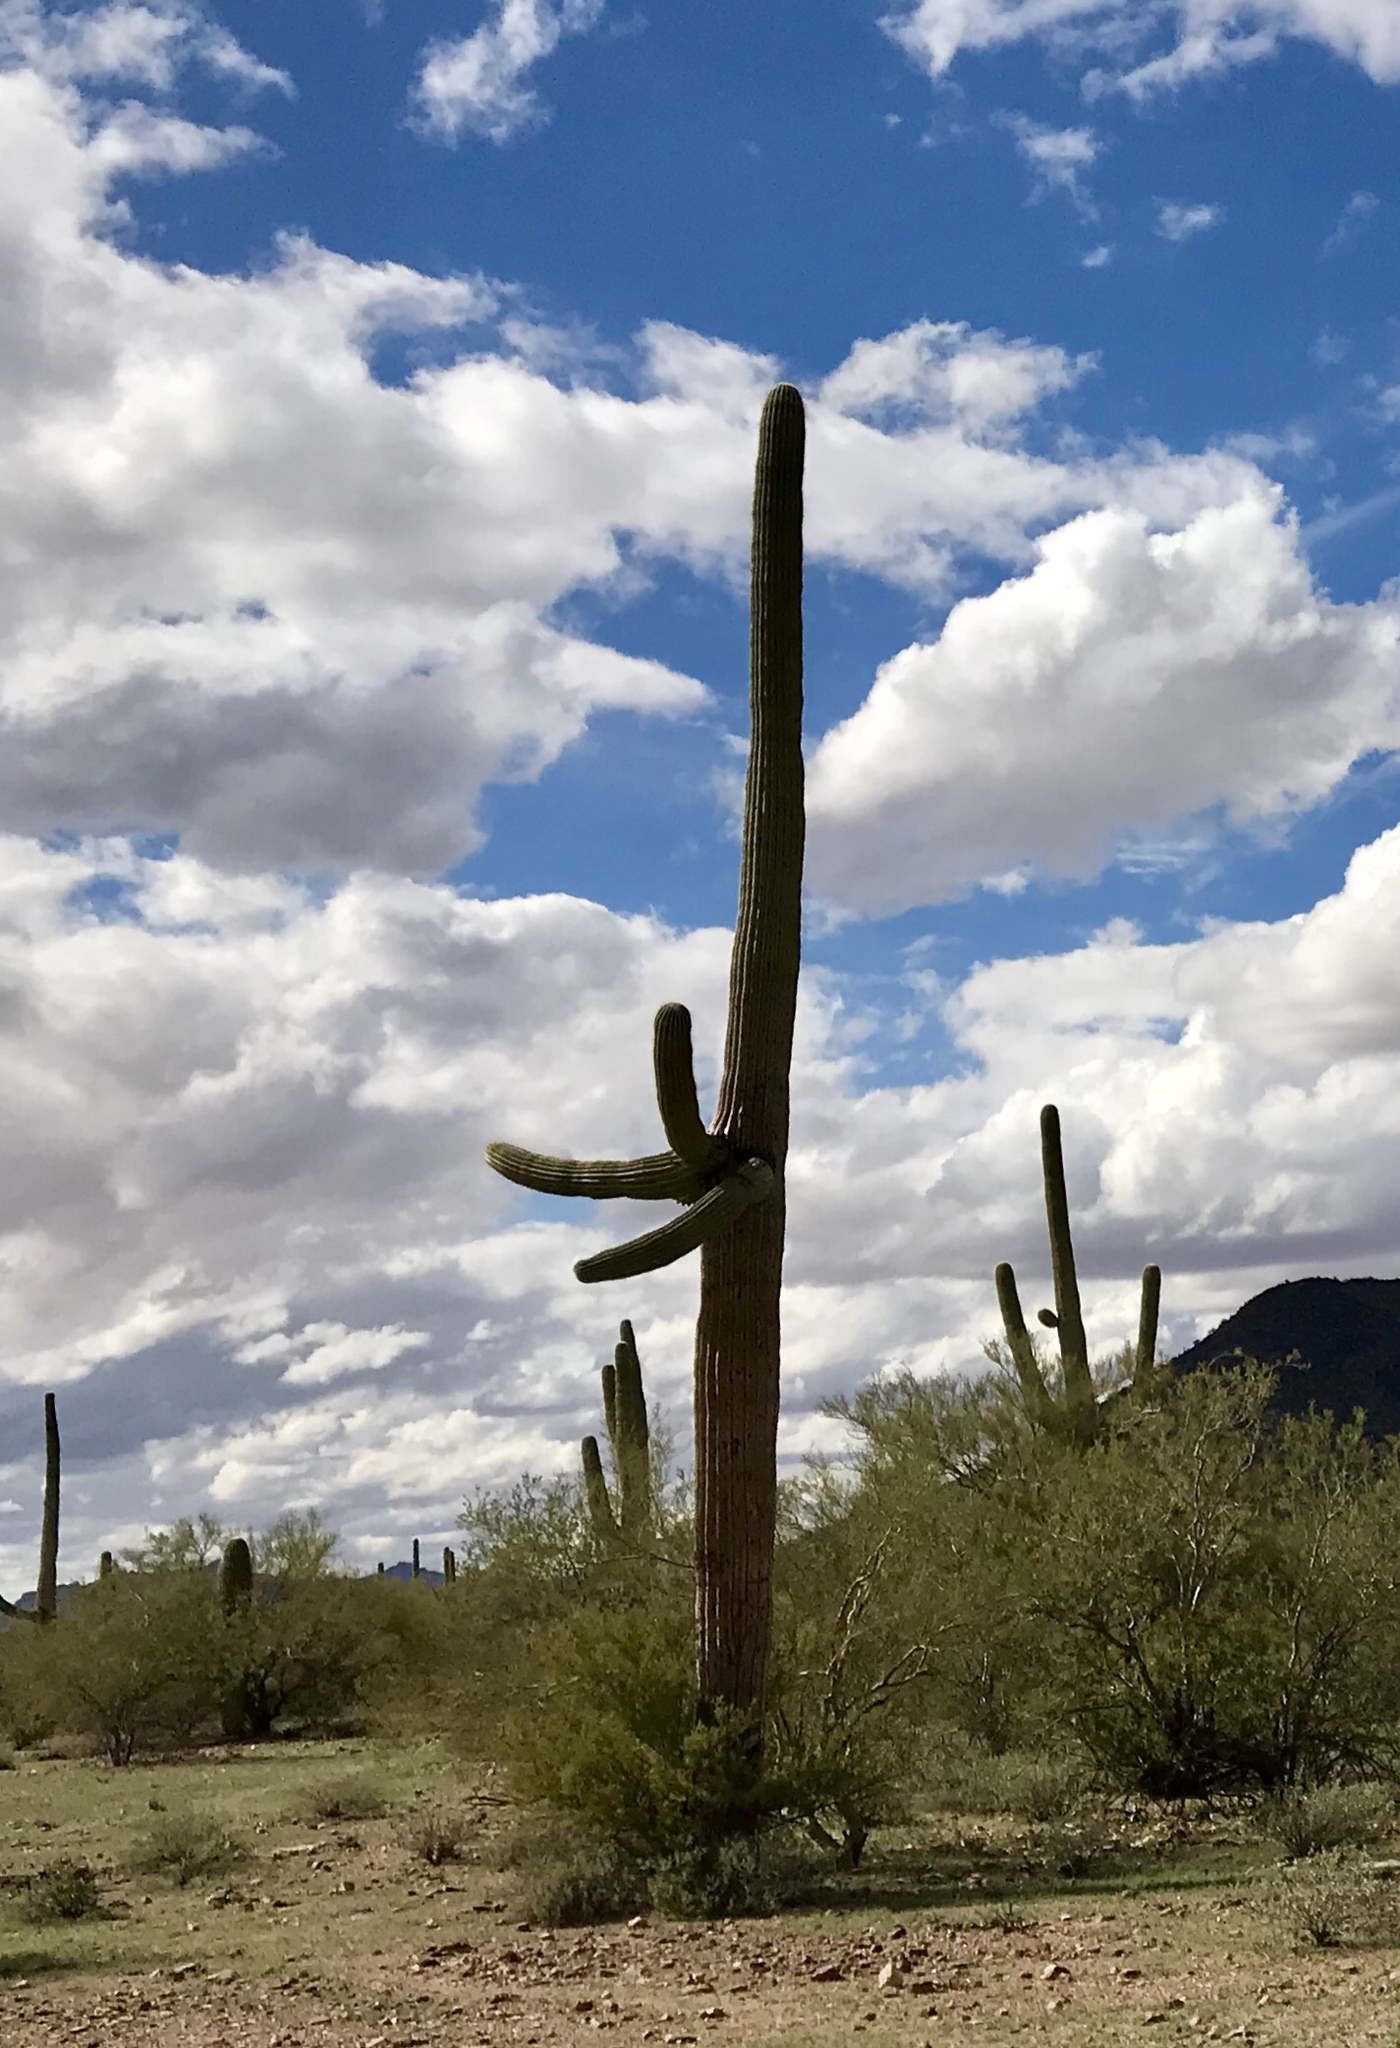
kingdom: Plantae
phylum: Tracheophyta
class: Magnoliopsida
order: Caryophyllales
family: Cactaceae
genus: Carnegiea
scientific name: Carnegiea gigantea
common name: Saguaro
